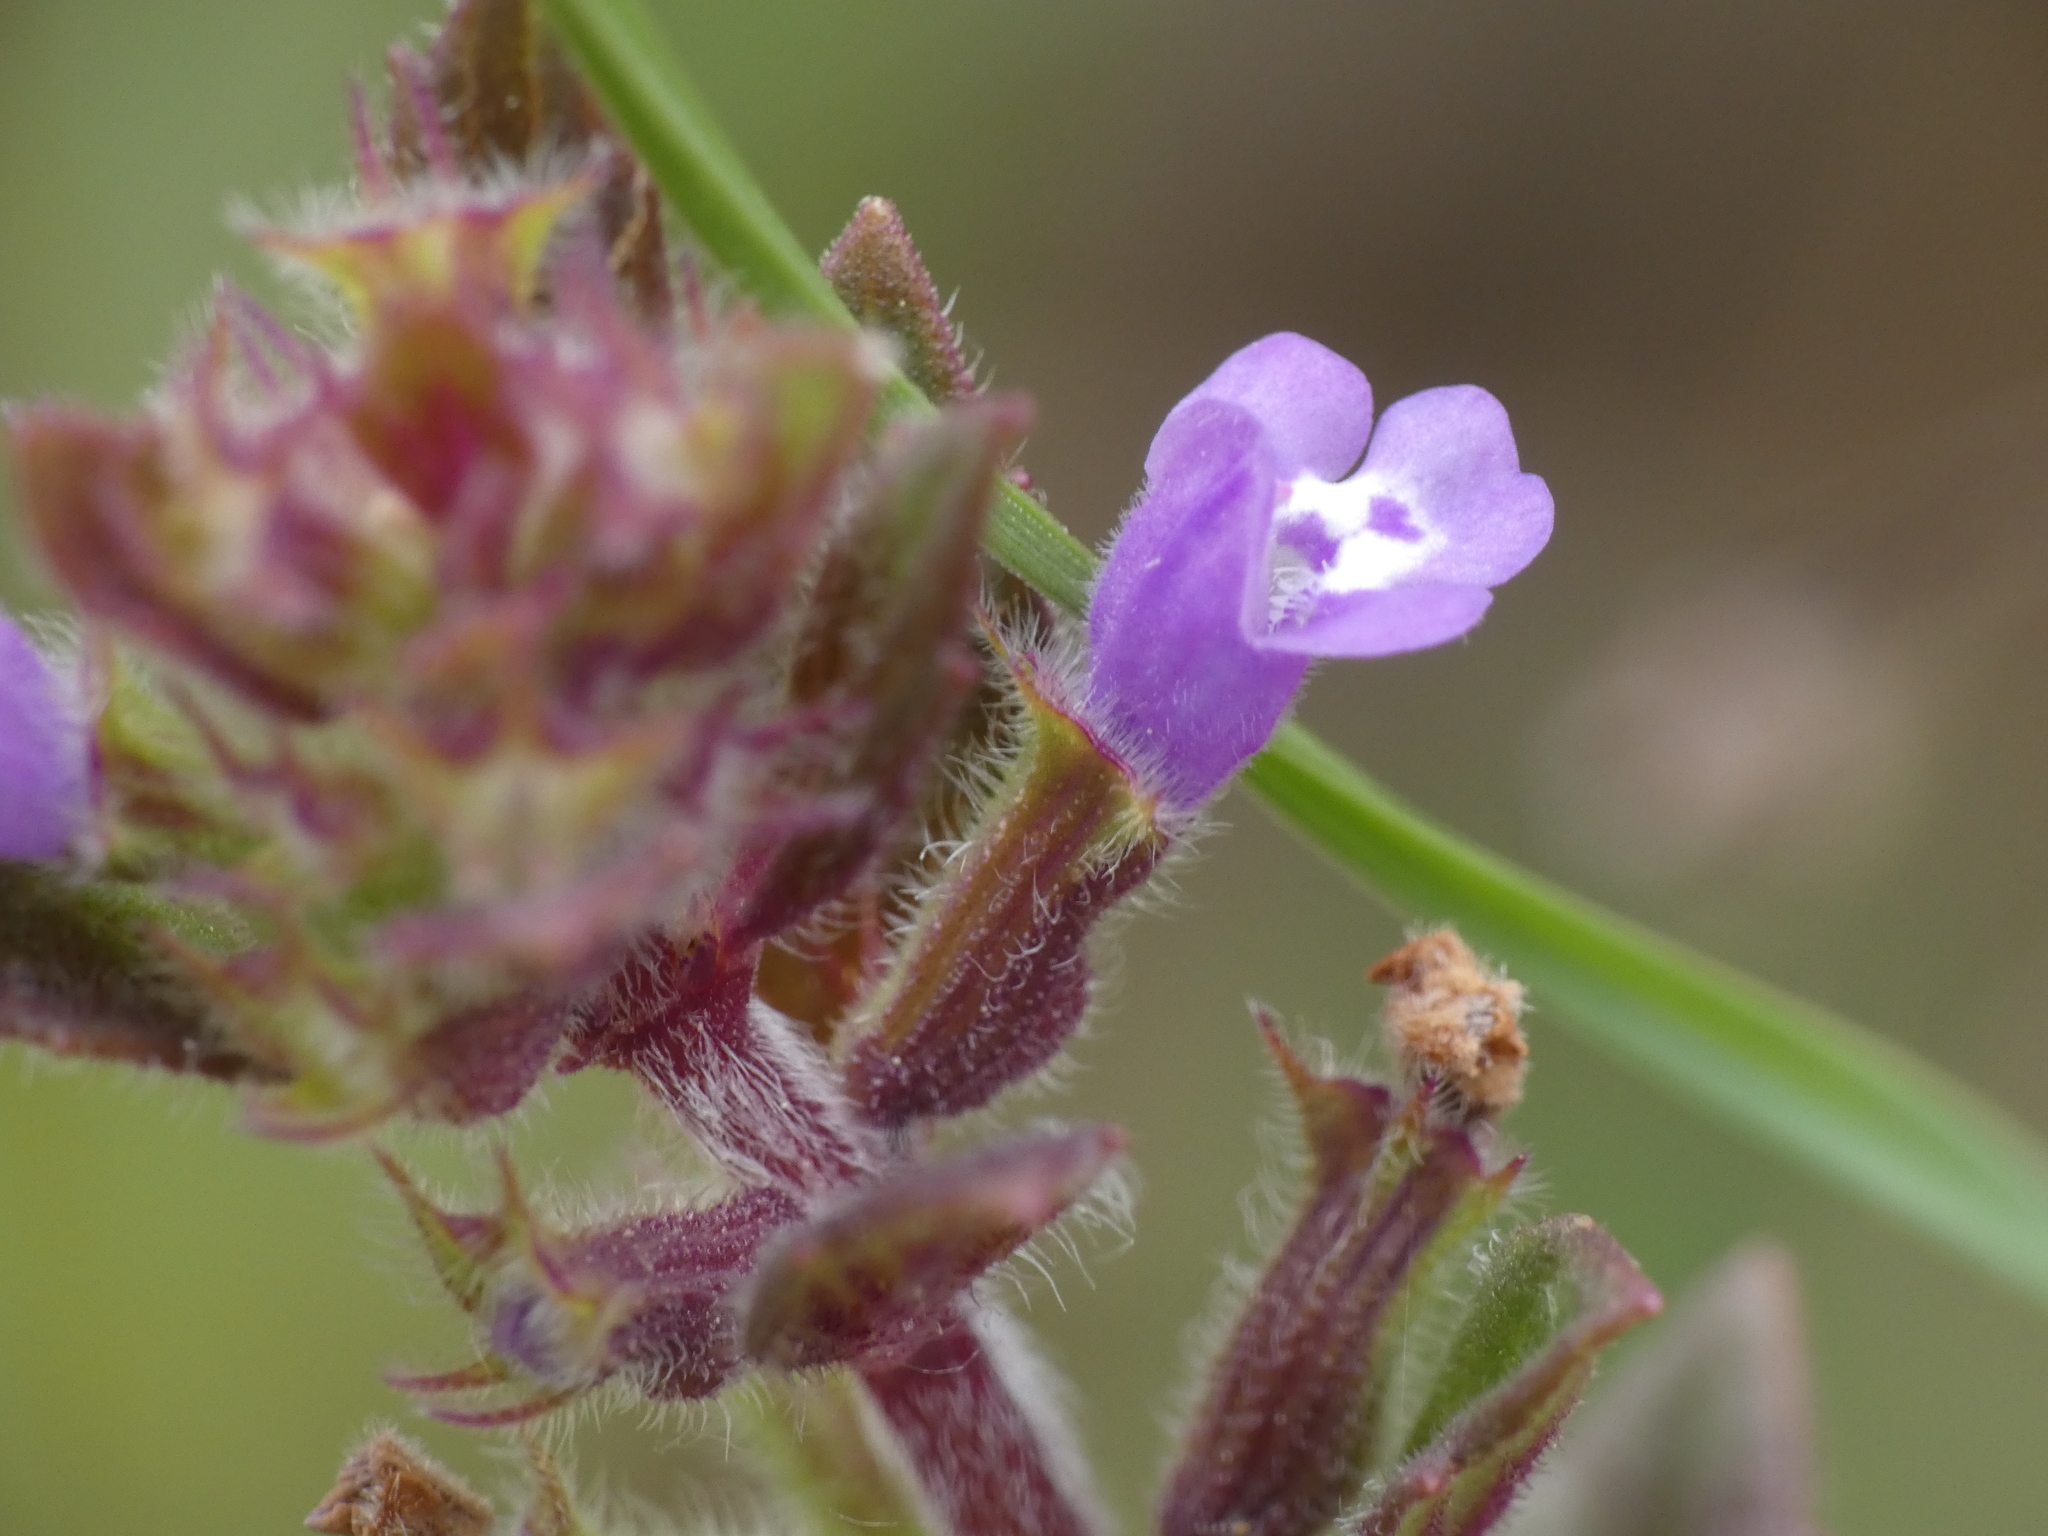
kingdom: Plantae
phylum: Tracheophyta
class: Magnoliopsida
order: Lamiales
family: Lamiaceae
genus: Clinopodium
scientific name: Clinopodium acinos
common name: Basil thyme
